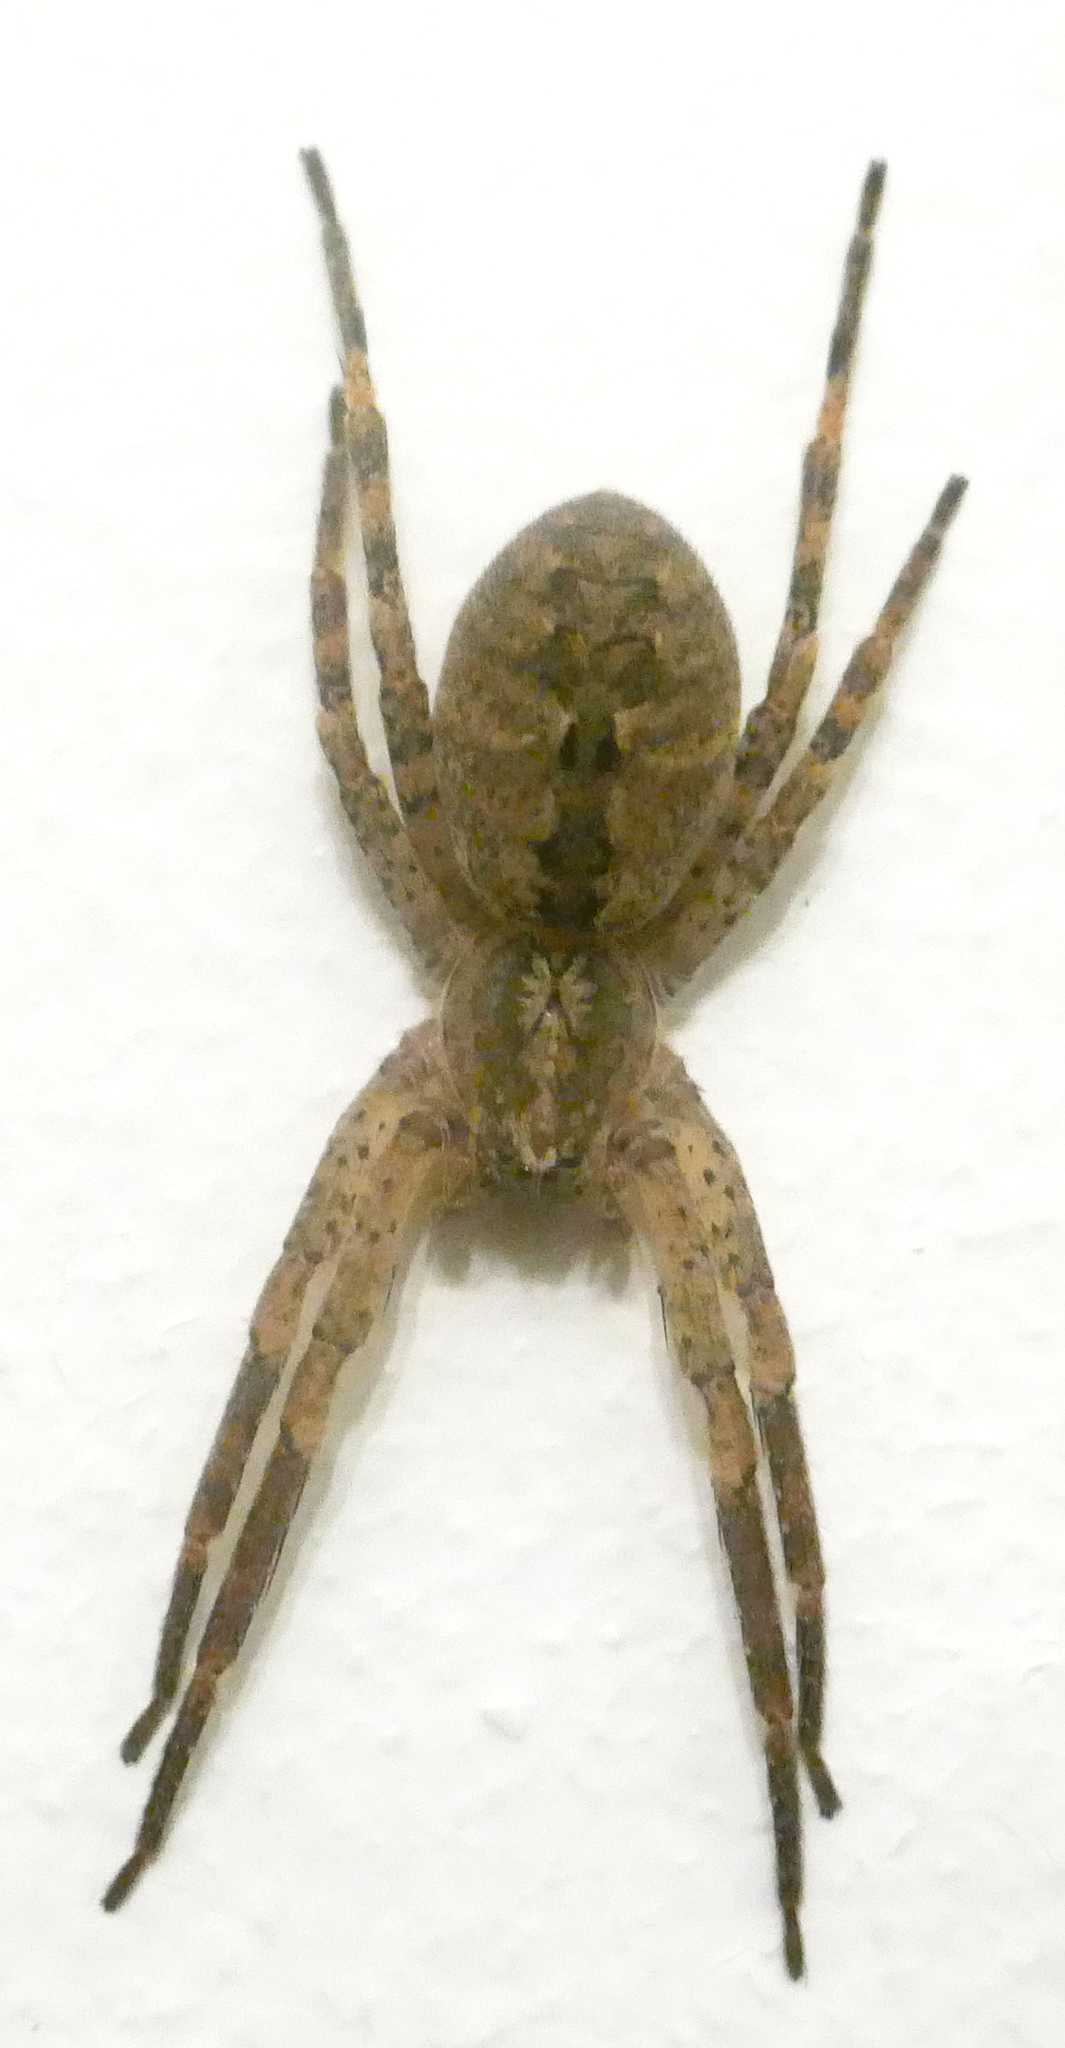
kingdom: Animalia
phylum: Arthropoda
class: Arachnida
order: Araneae
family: Zoropsidae
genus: Zoropsis
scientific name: Zoropsis spinimana
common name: Zoropsid spider
